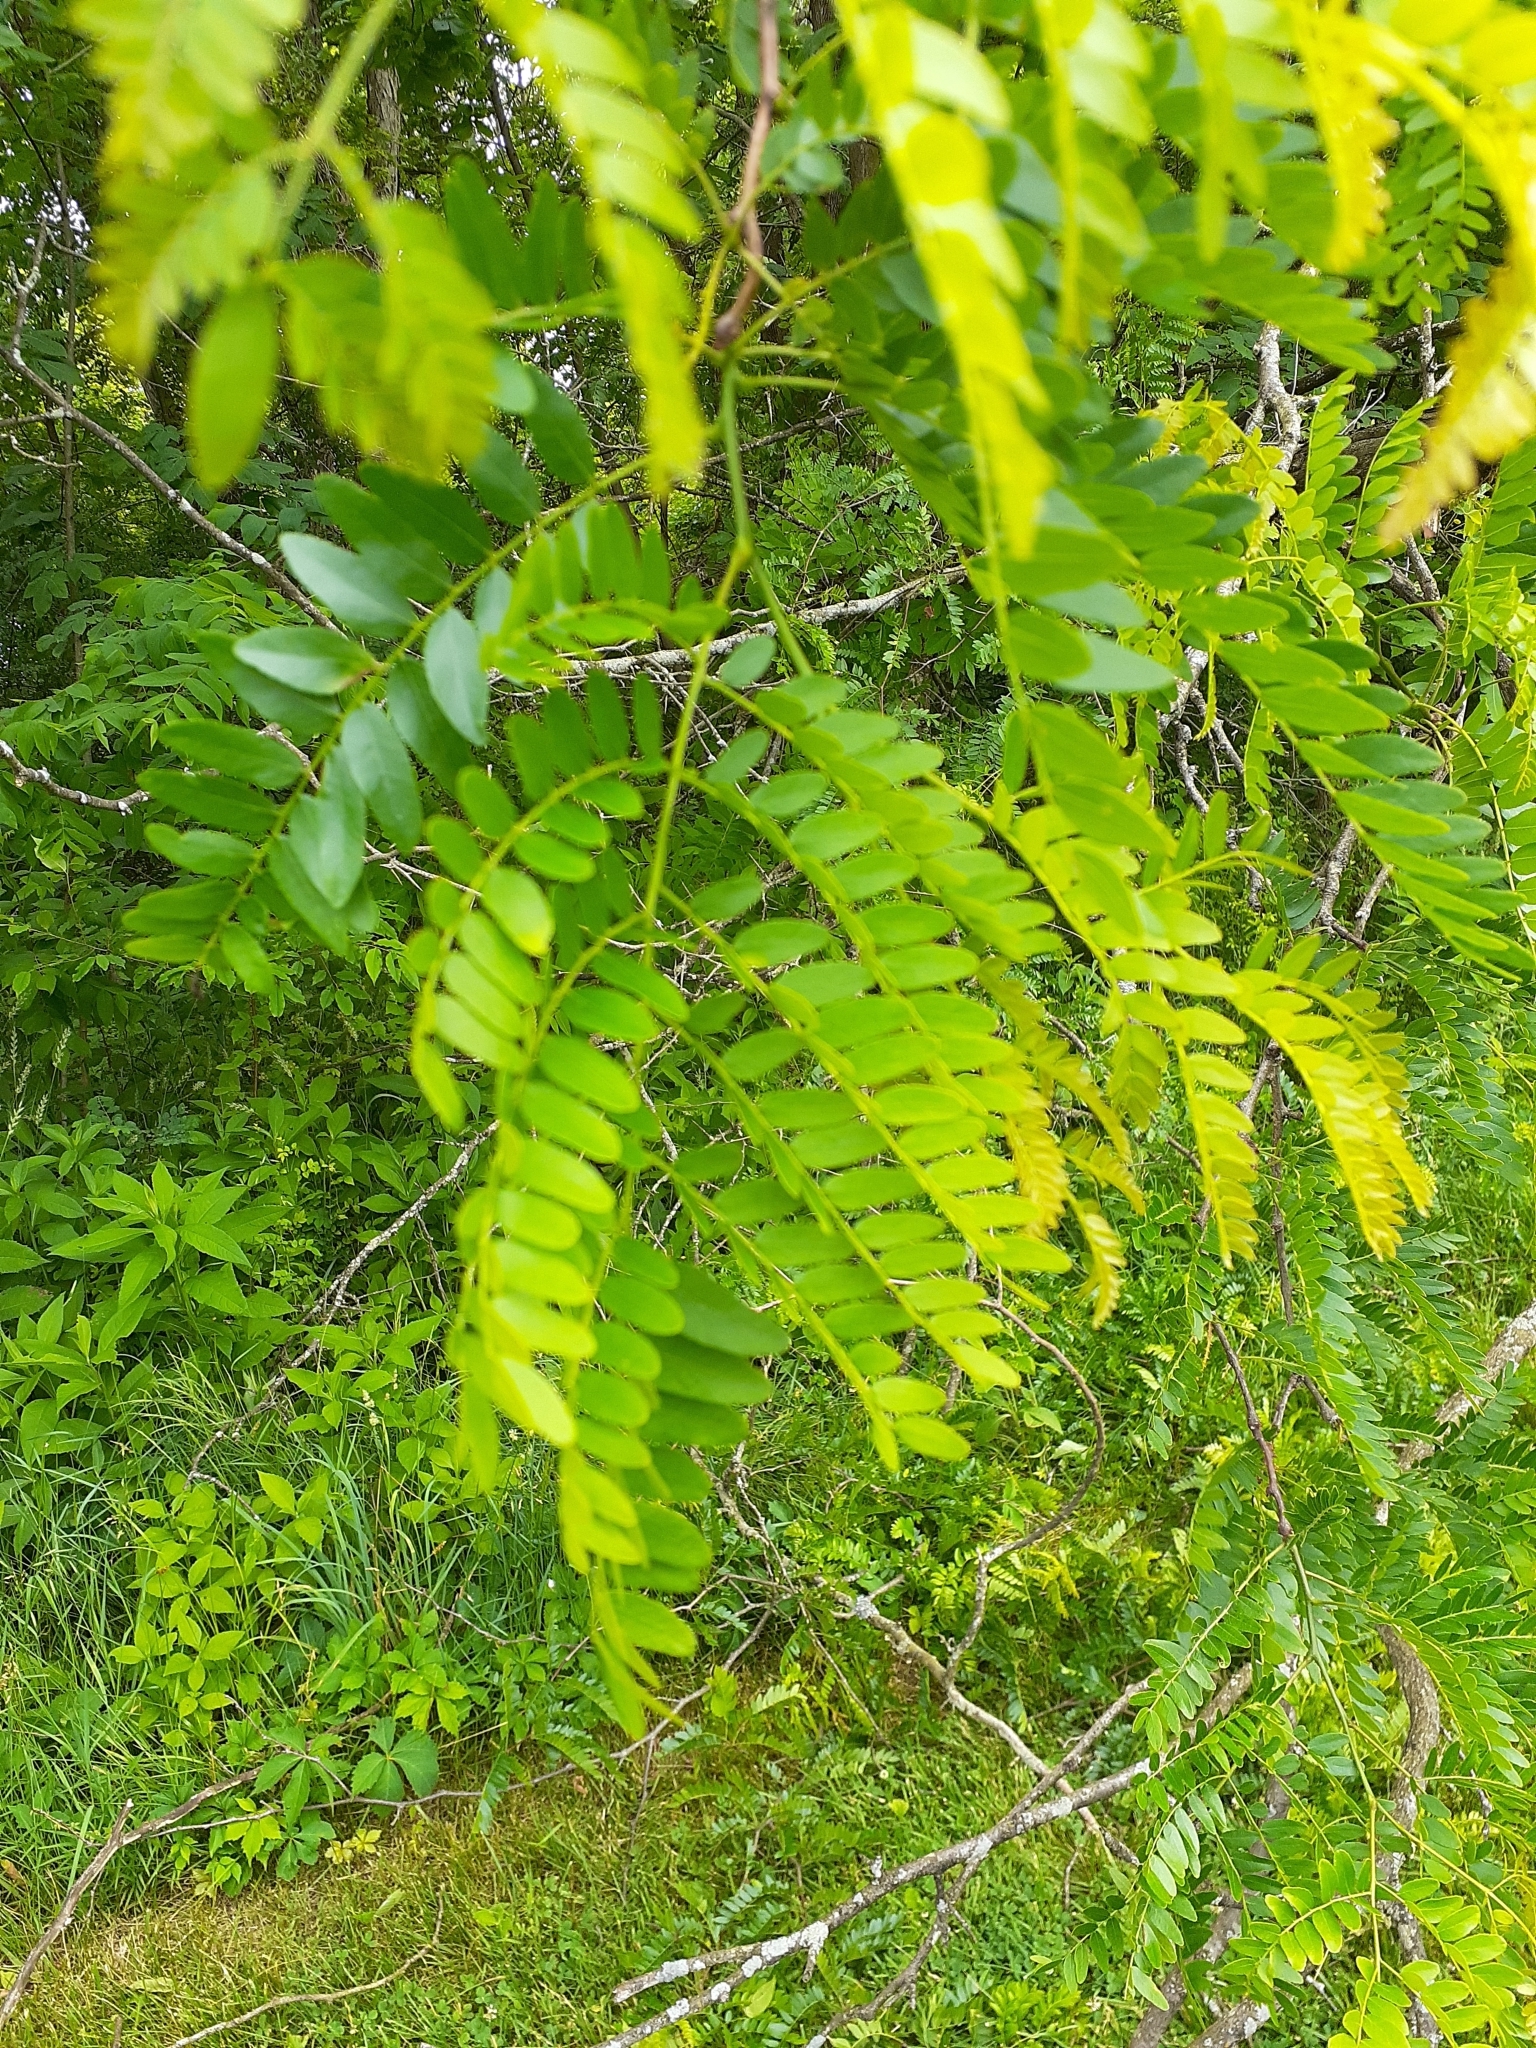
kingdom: Plantae
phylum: Tracheophyta
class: Magnoliopsida
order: Fabales
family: Fabaceae
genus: Gleditsia
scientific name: Gleditsia triacanthos
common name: Common honeylocust
